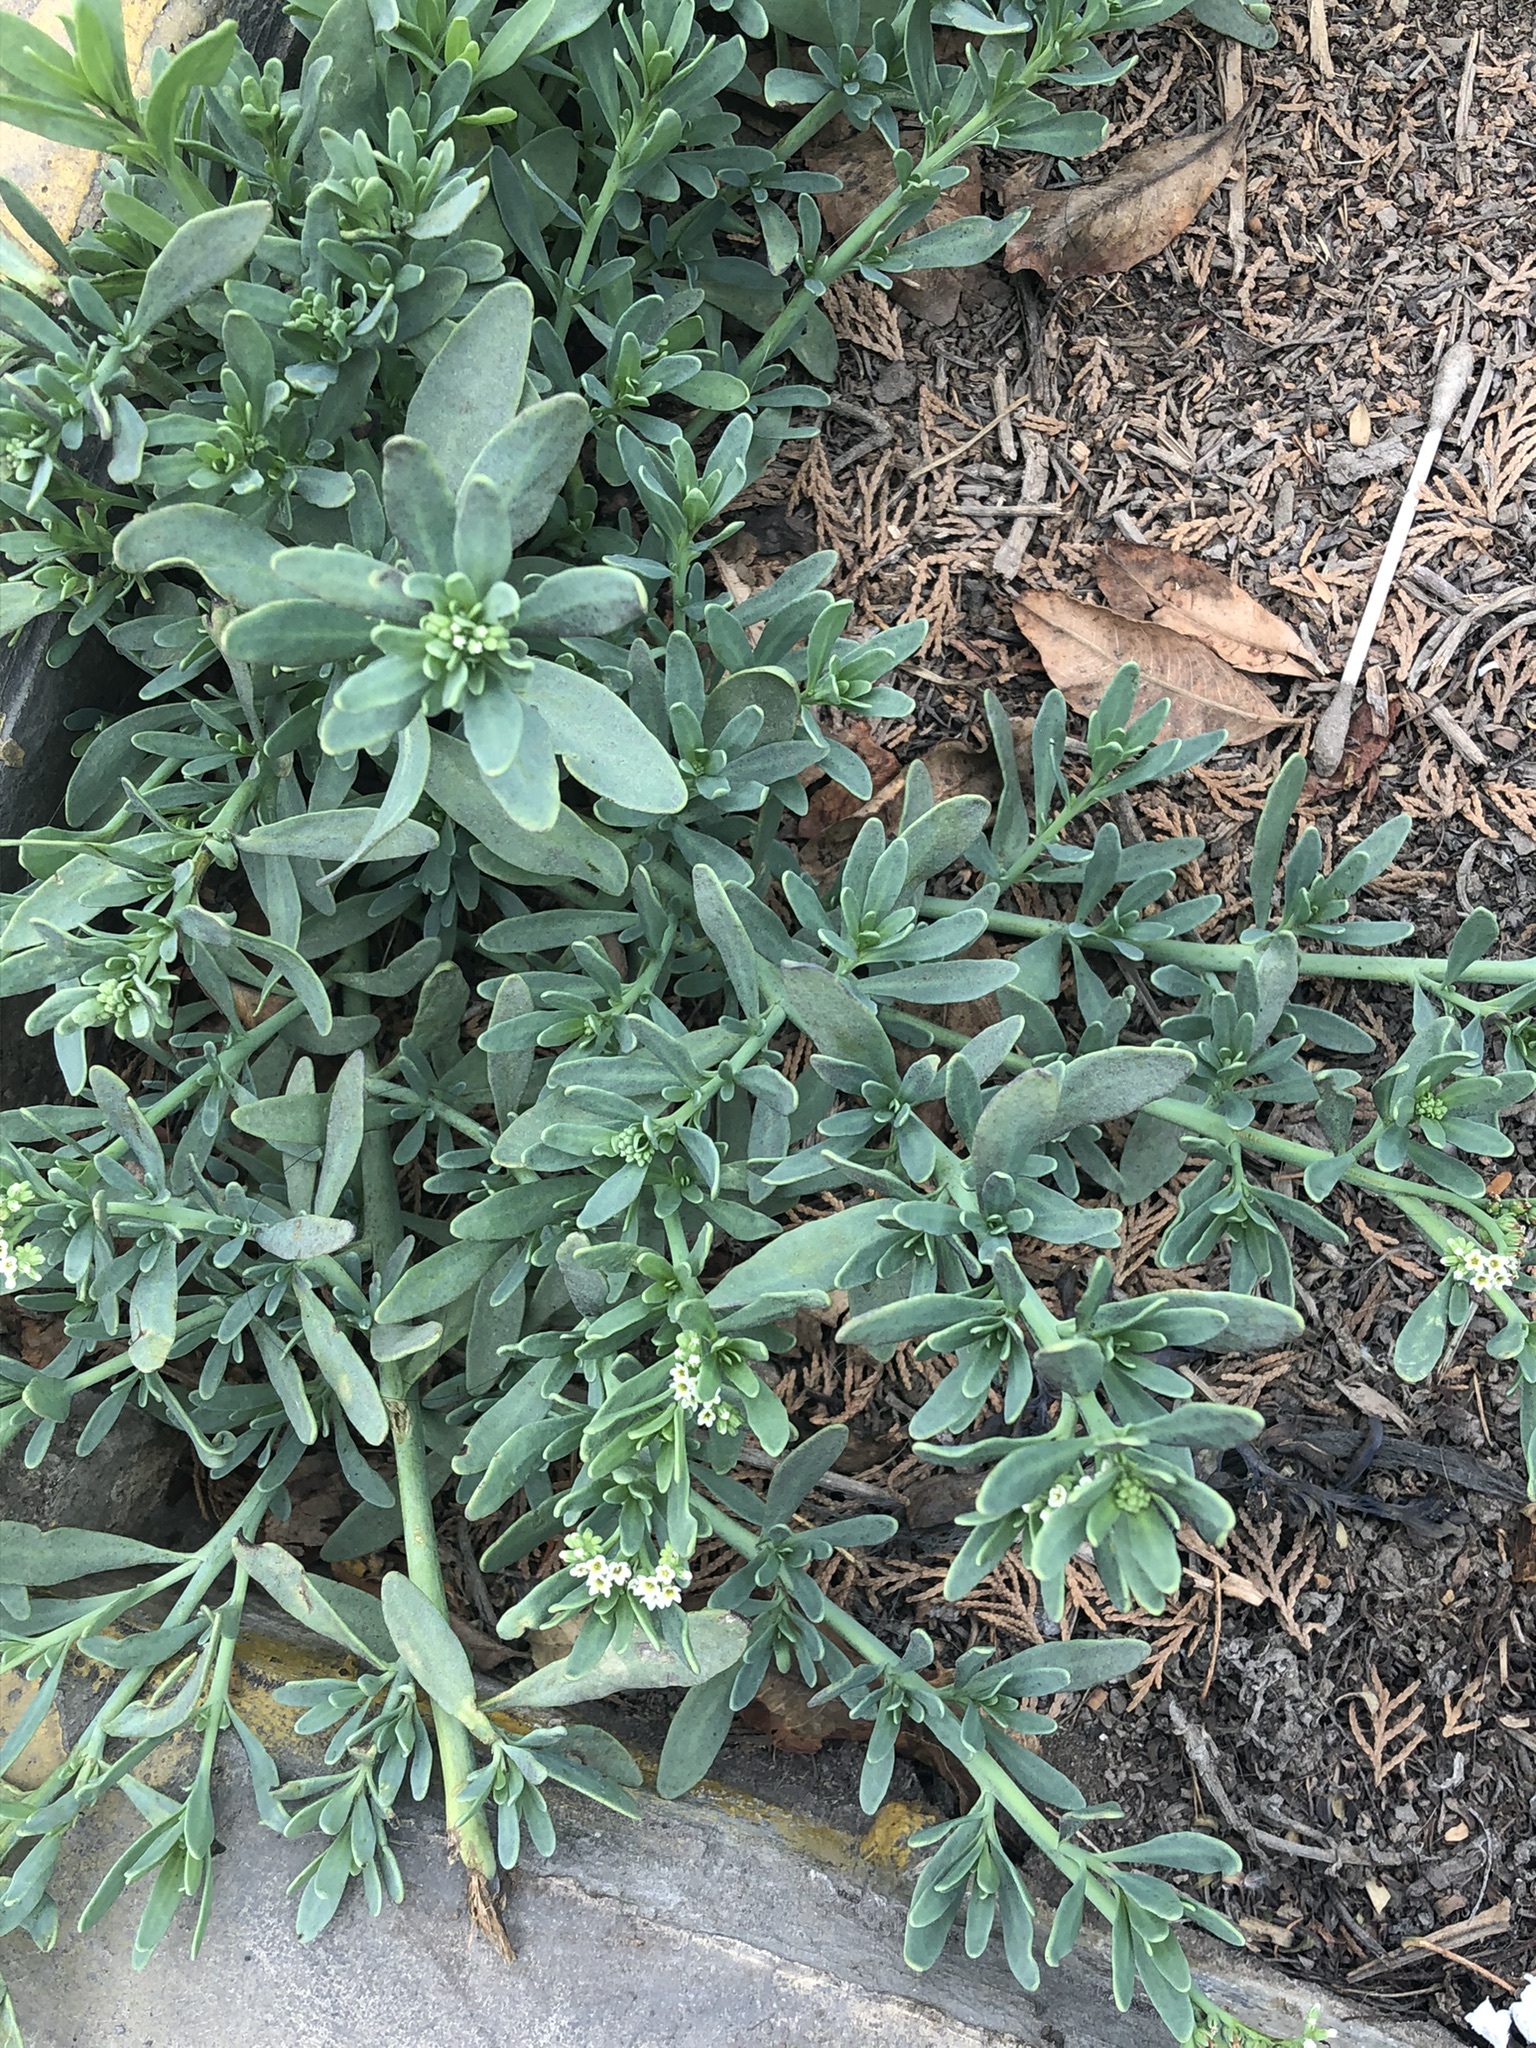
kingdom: Plantae
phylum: Tracheophyta
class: Magnoliopsida
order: Boraginales
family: Heliotropiaceae
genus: Heliotropium
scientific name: Heliotropium curassavicum
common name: Seaside heliotrope
